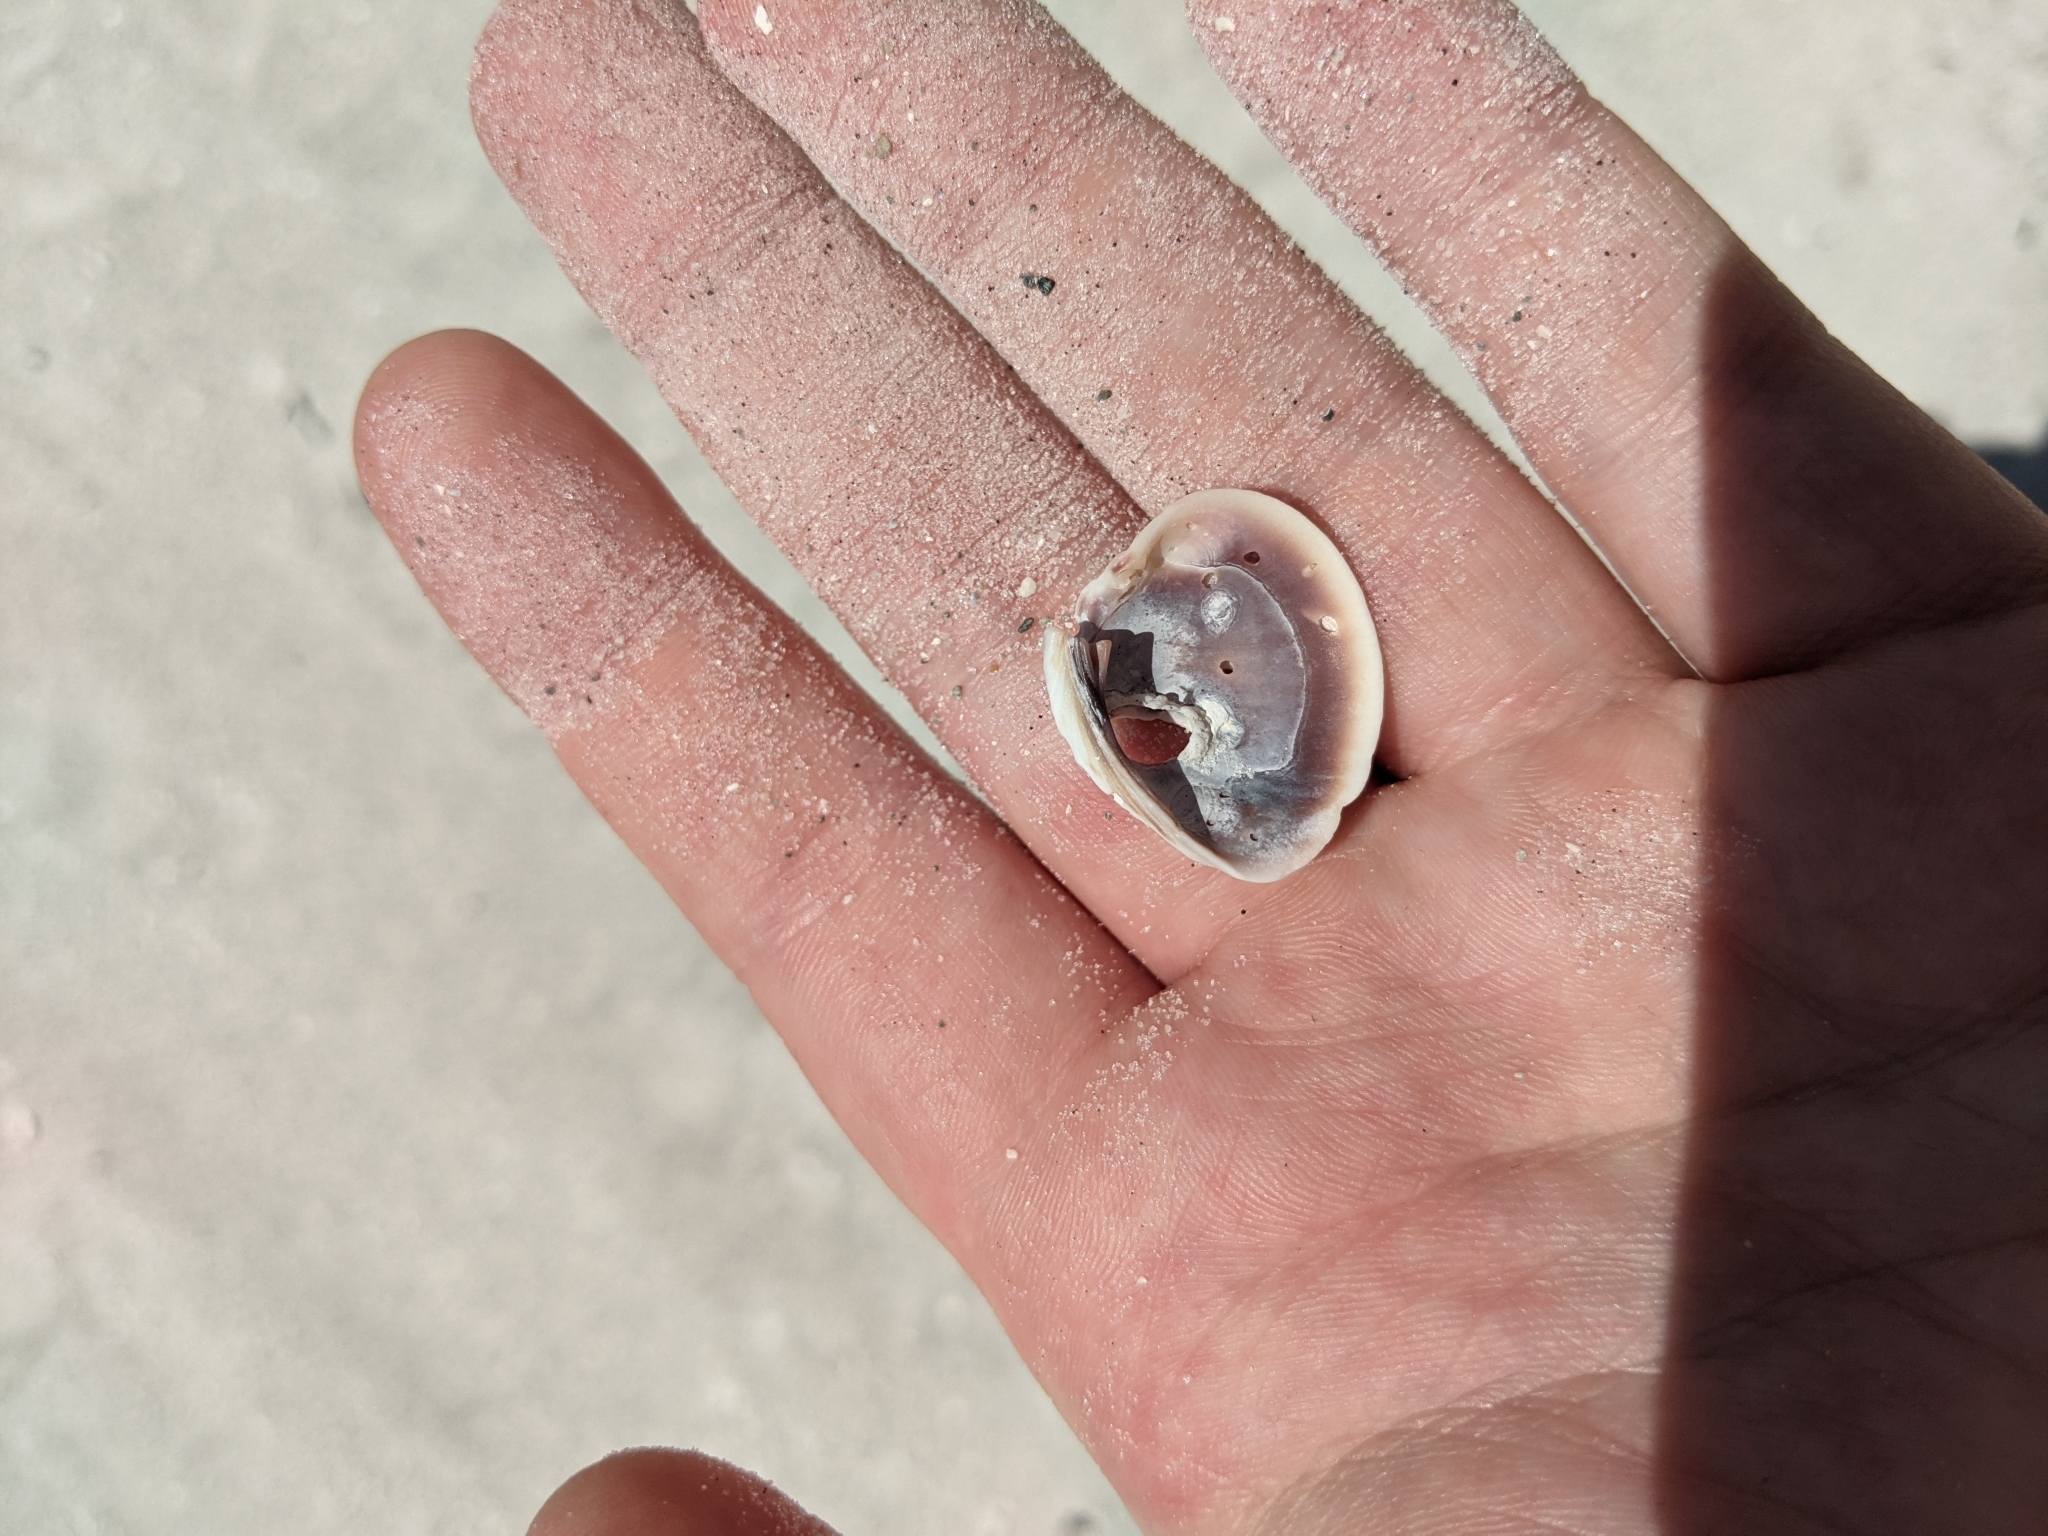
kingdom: Animalia
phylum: Mollusca
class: Bivalvia
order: Venerida
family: Veneridae
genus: Chione
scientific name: Chione elevata
